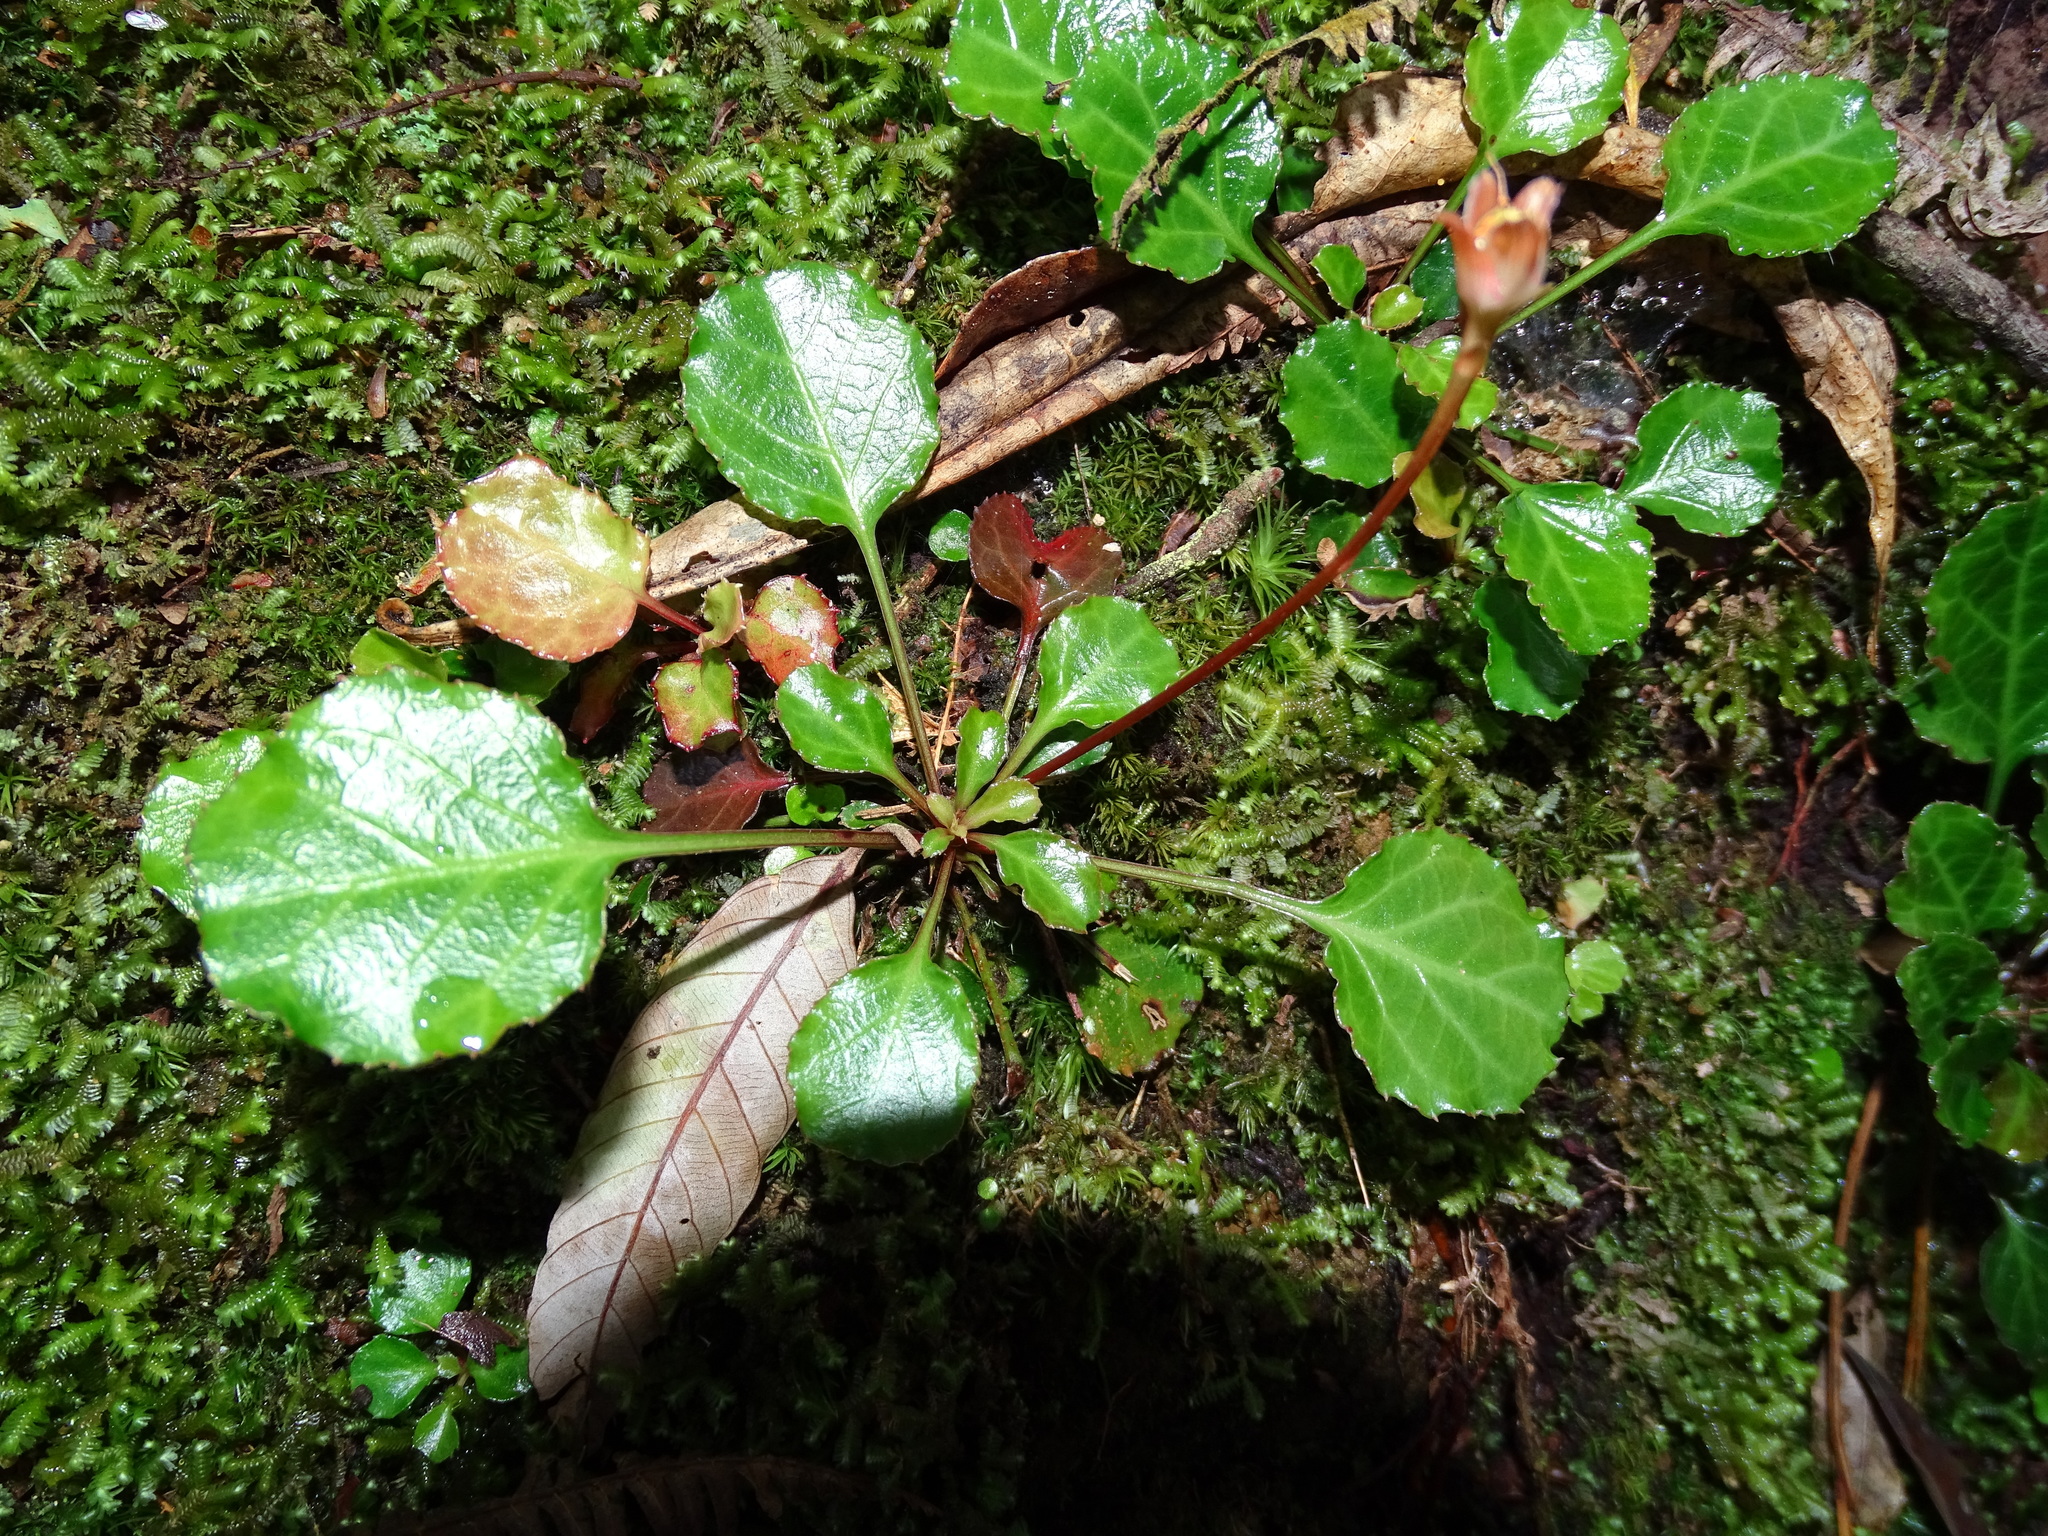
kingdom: Plantae
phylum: Tracheophyta
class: Magnoliopsida
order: Ericales
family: Diapensiaceae
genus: Shortia
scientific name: Shortia rotundifolia
